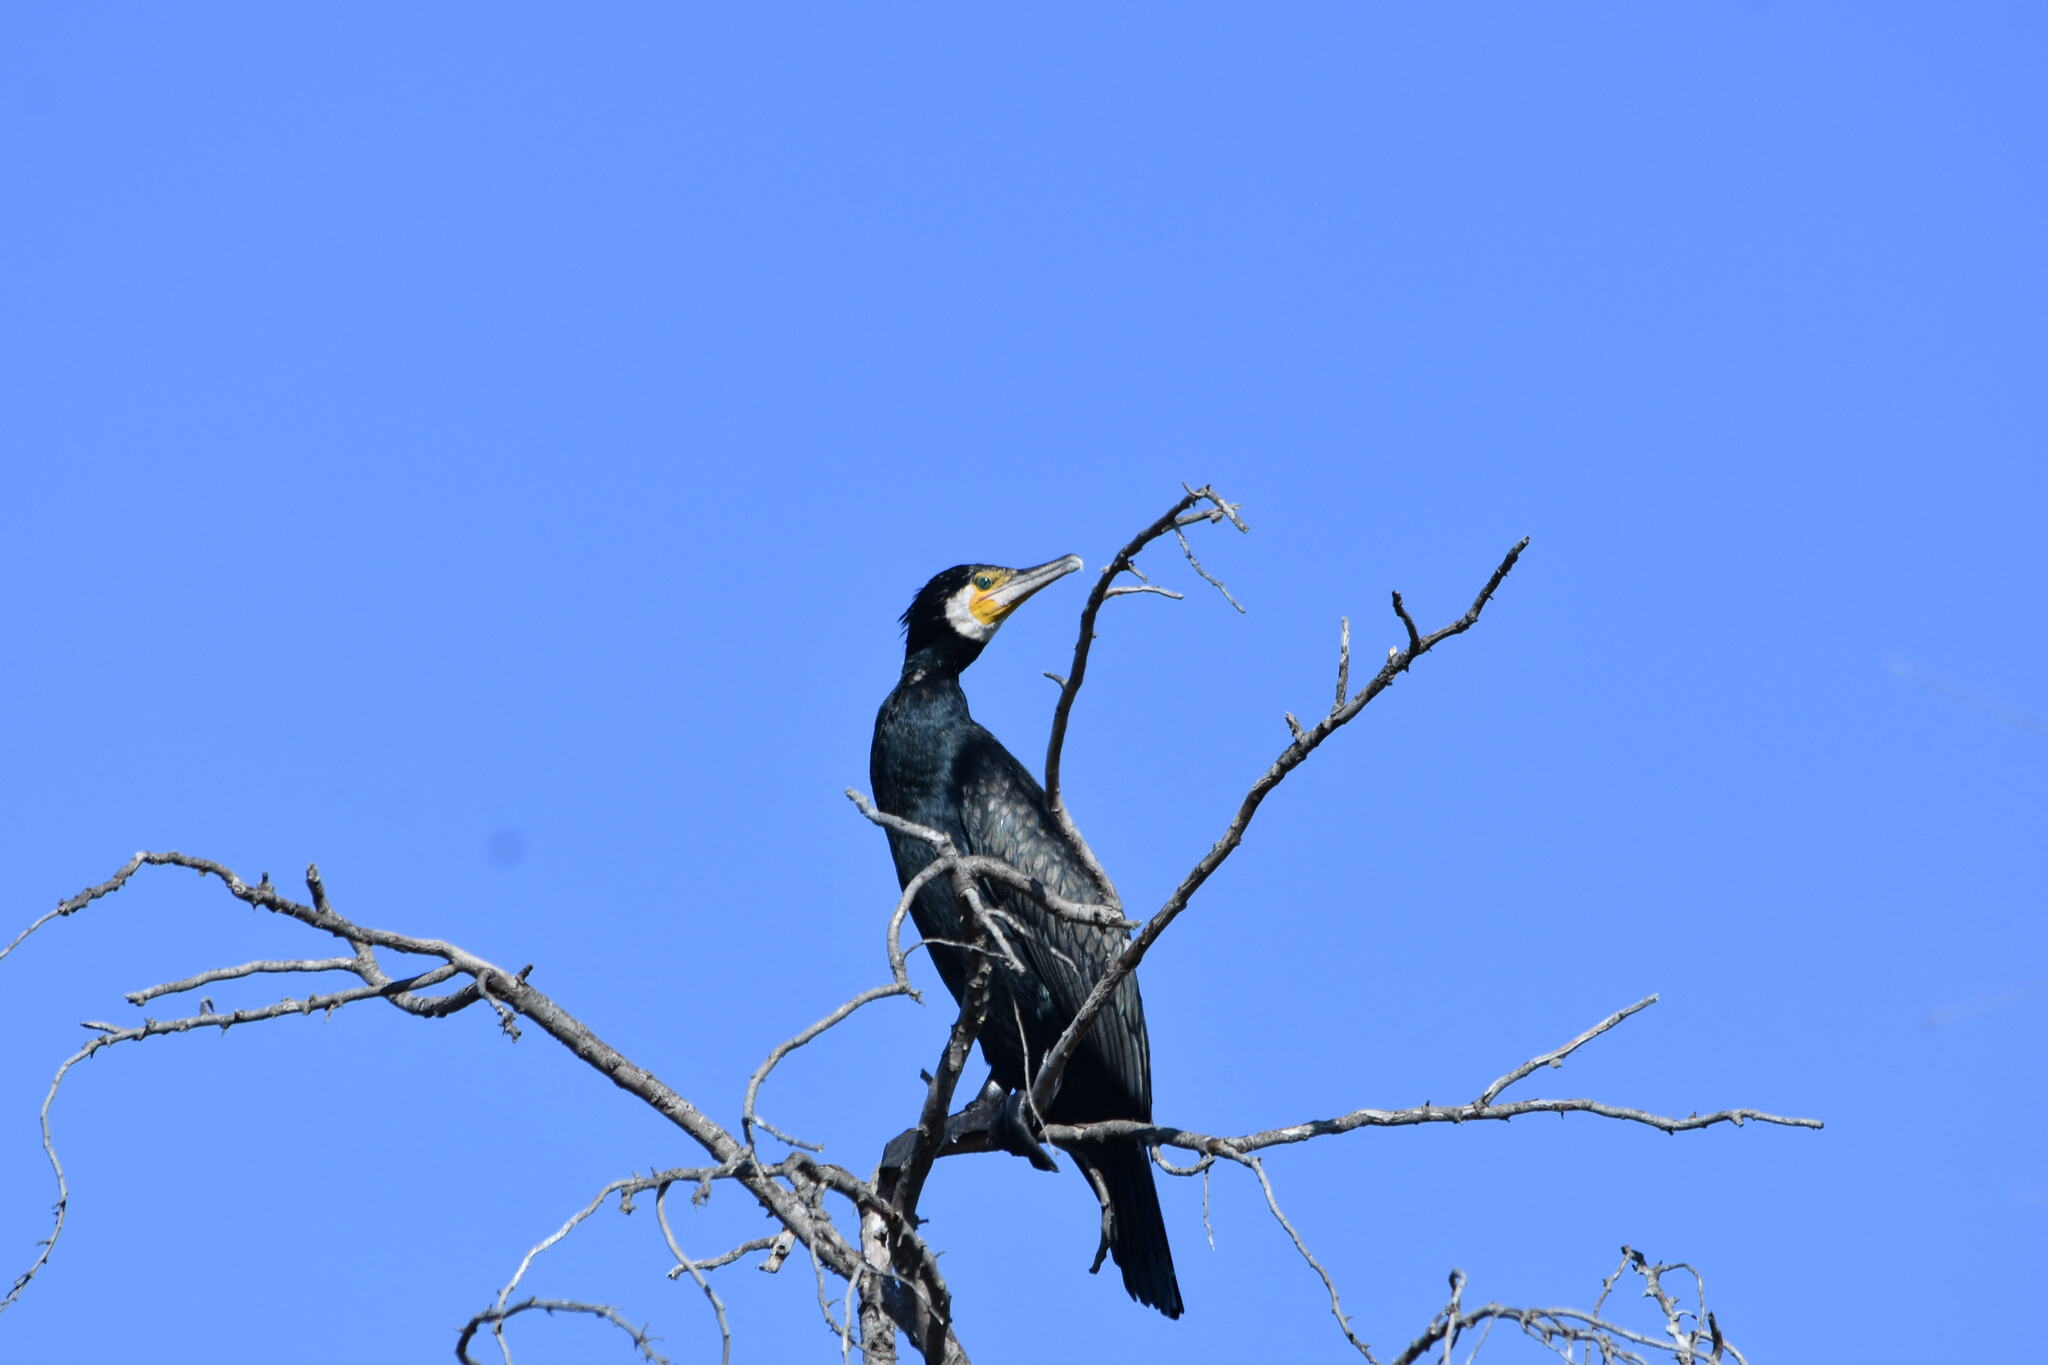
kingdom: Animalia
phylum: Chordata
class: Aves
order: Suliformes
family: Phalacrocoracidae
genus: Phalacrocorax
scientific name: Phalacrocorax carbo
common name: Great cormorant
